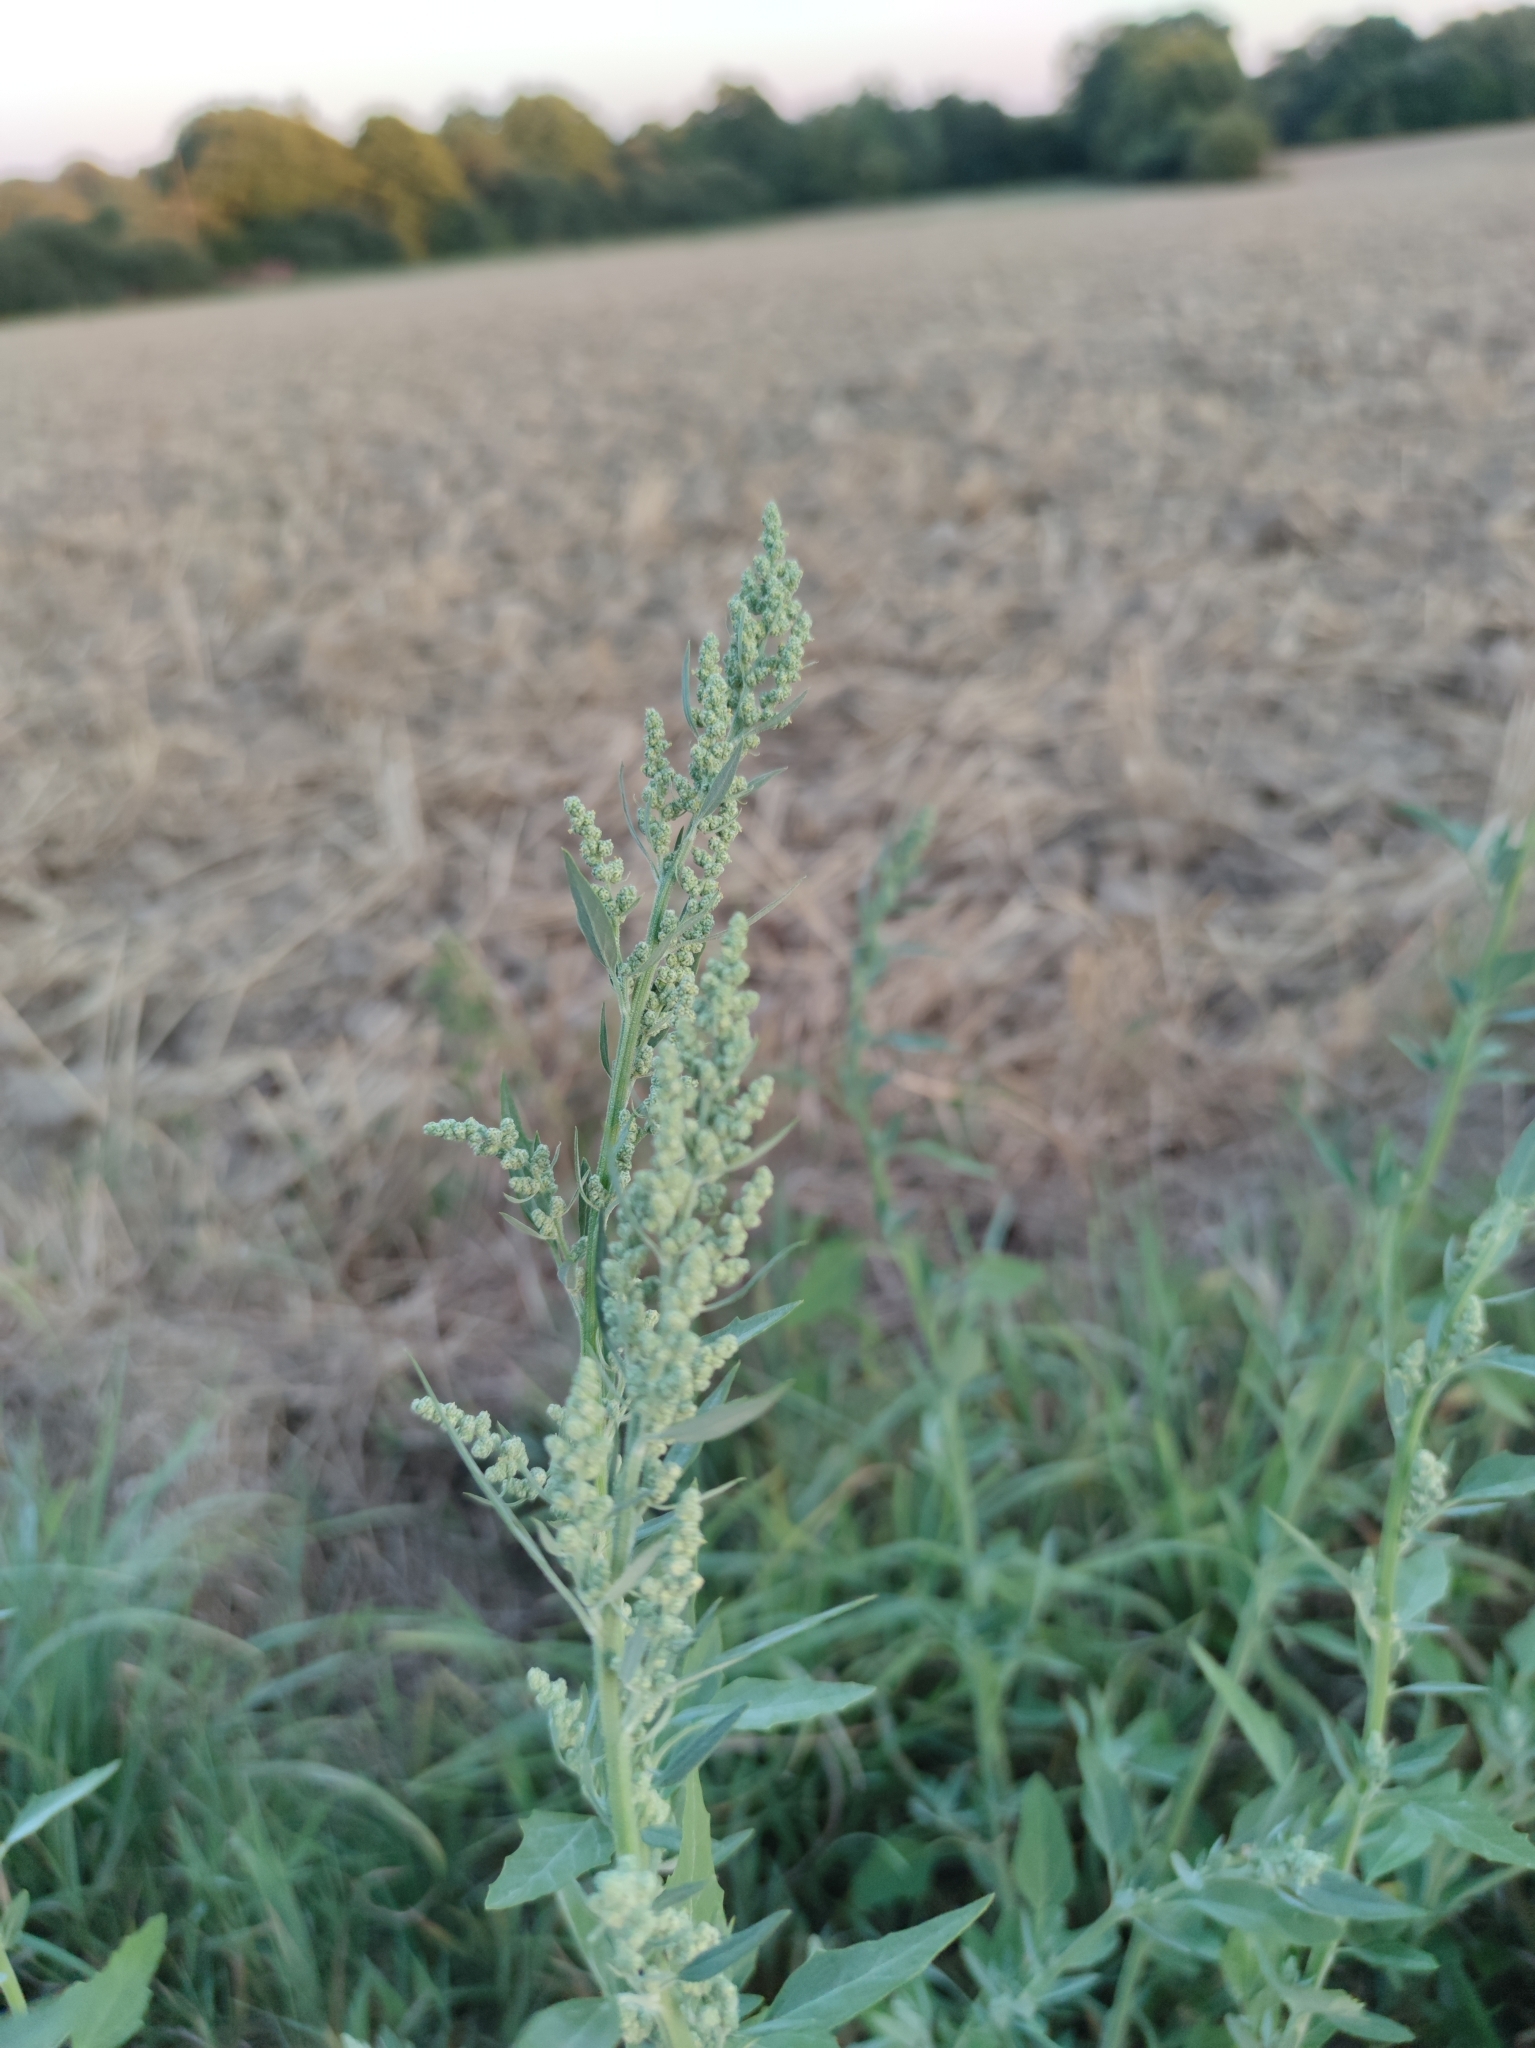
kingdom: Plantae
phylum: Tracheophyta
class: Magnoliopsida
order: Caryophyllales
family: Amaranthaceae
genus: Chenopodium
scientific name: Chenopodium album
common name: Fat-hen
